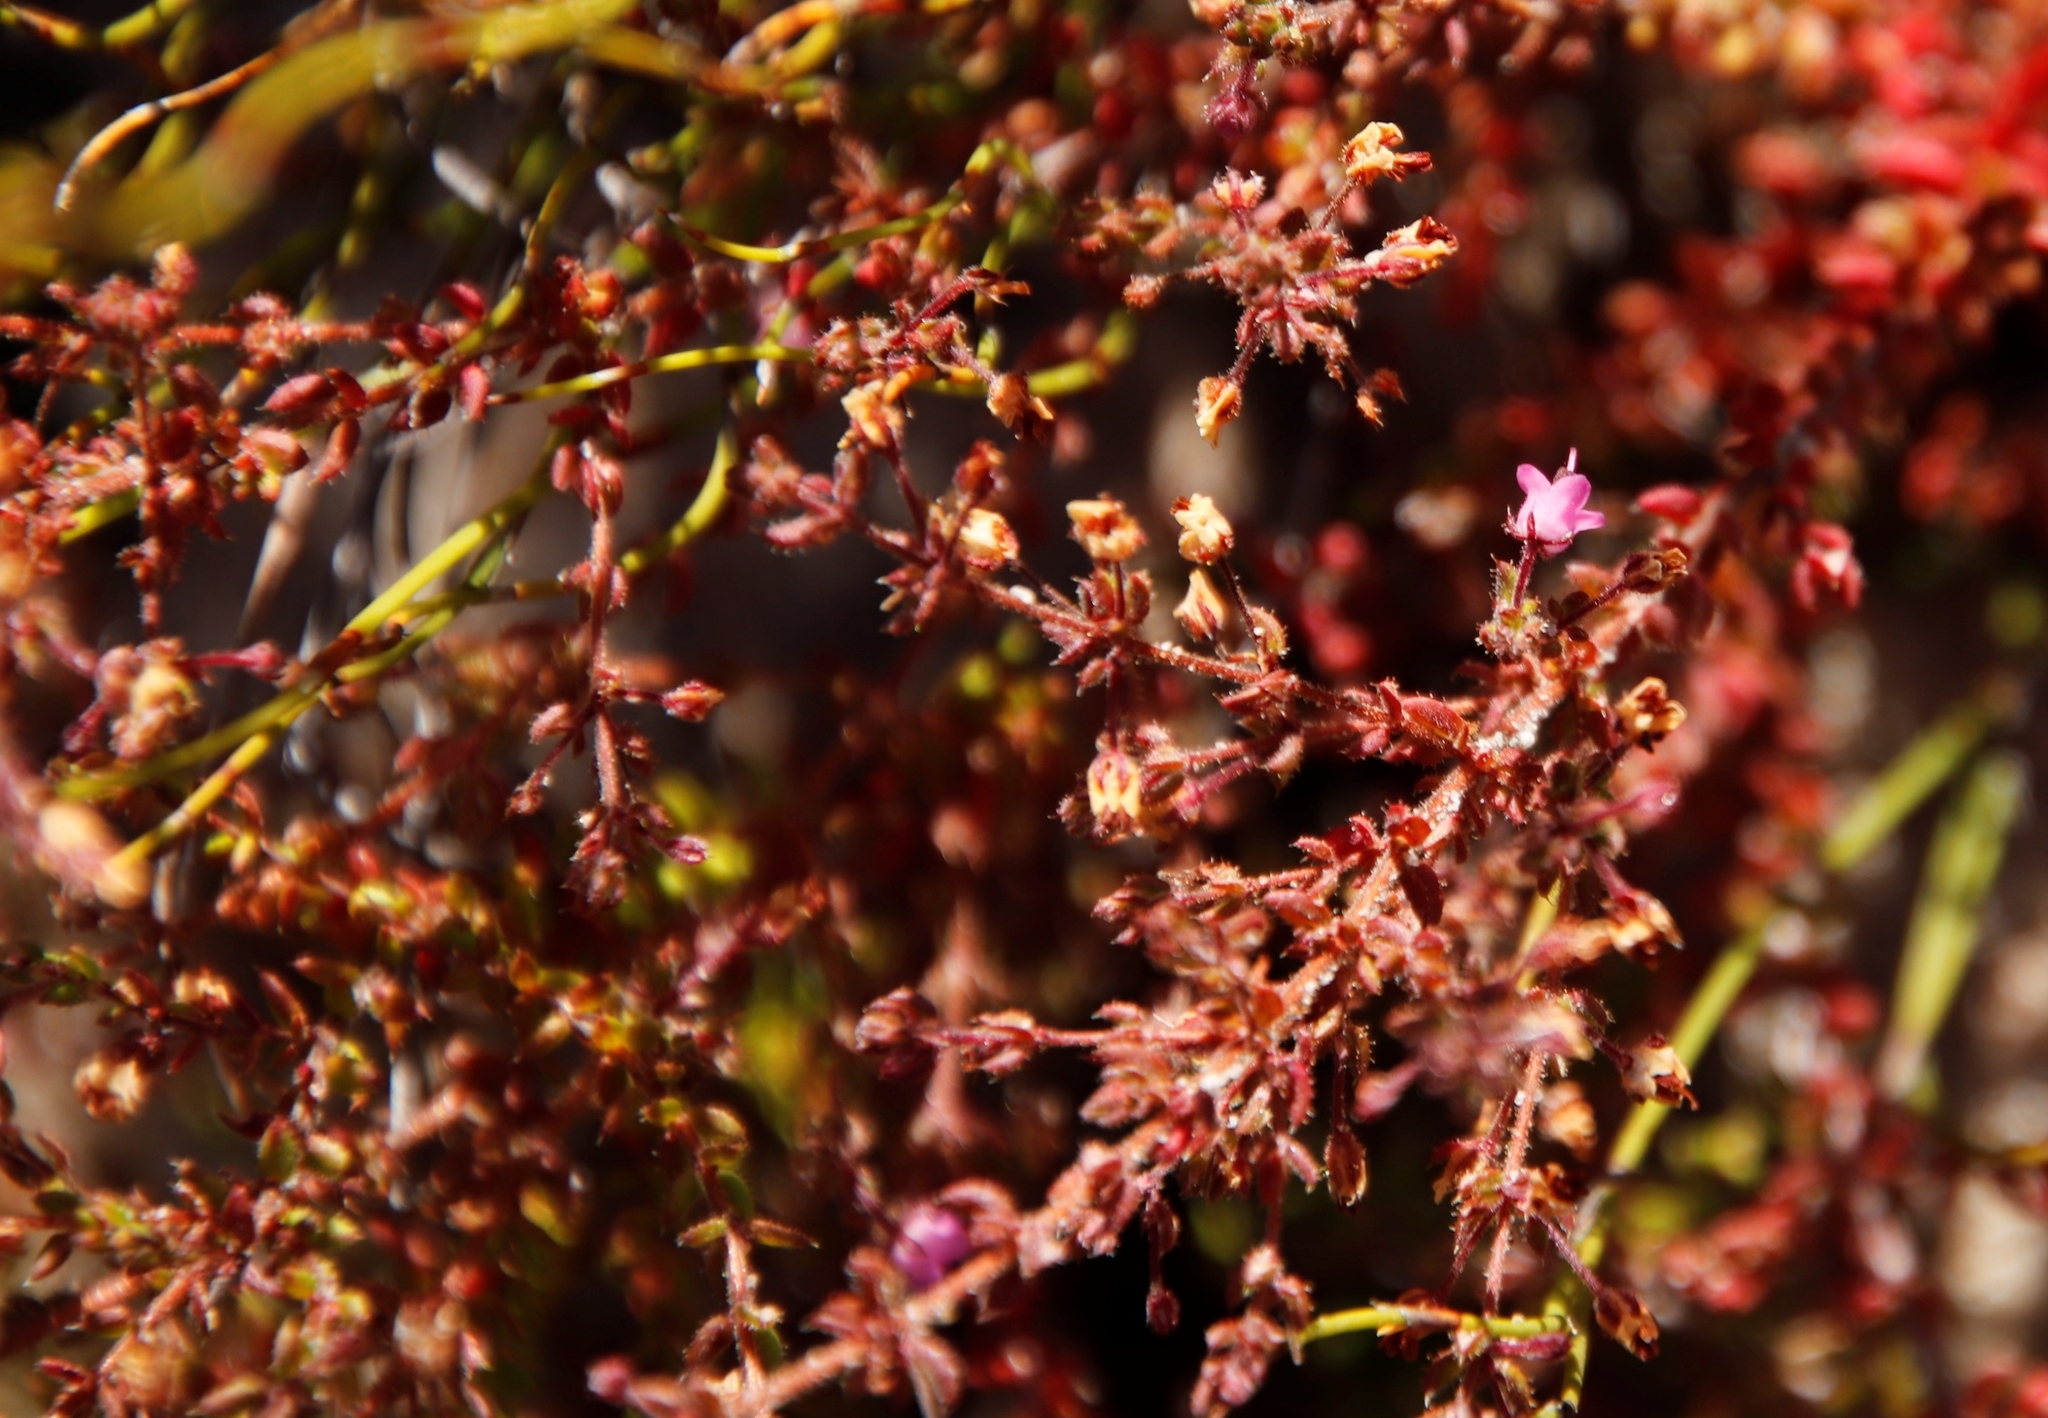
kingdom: Plantae
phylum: Tracheophyta
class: Magnoliopsida
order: Ericales
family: Ericaceae
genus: Erica
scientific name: Erica thimifolia
